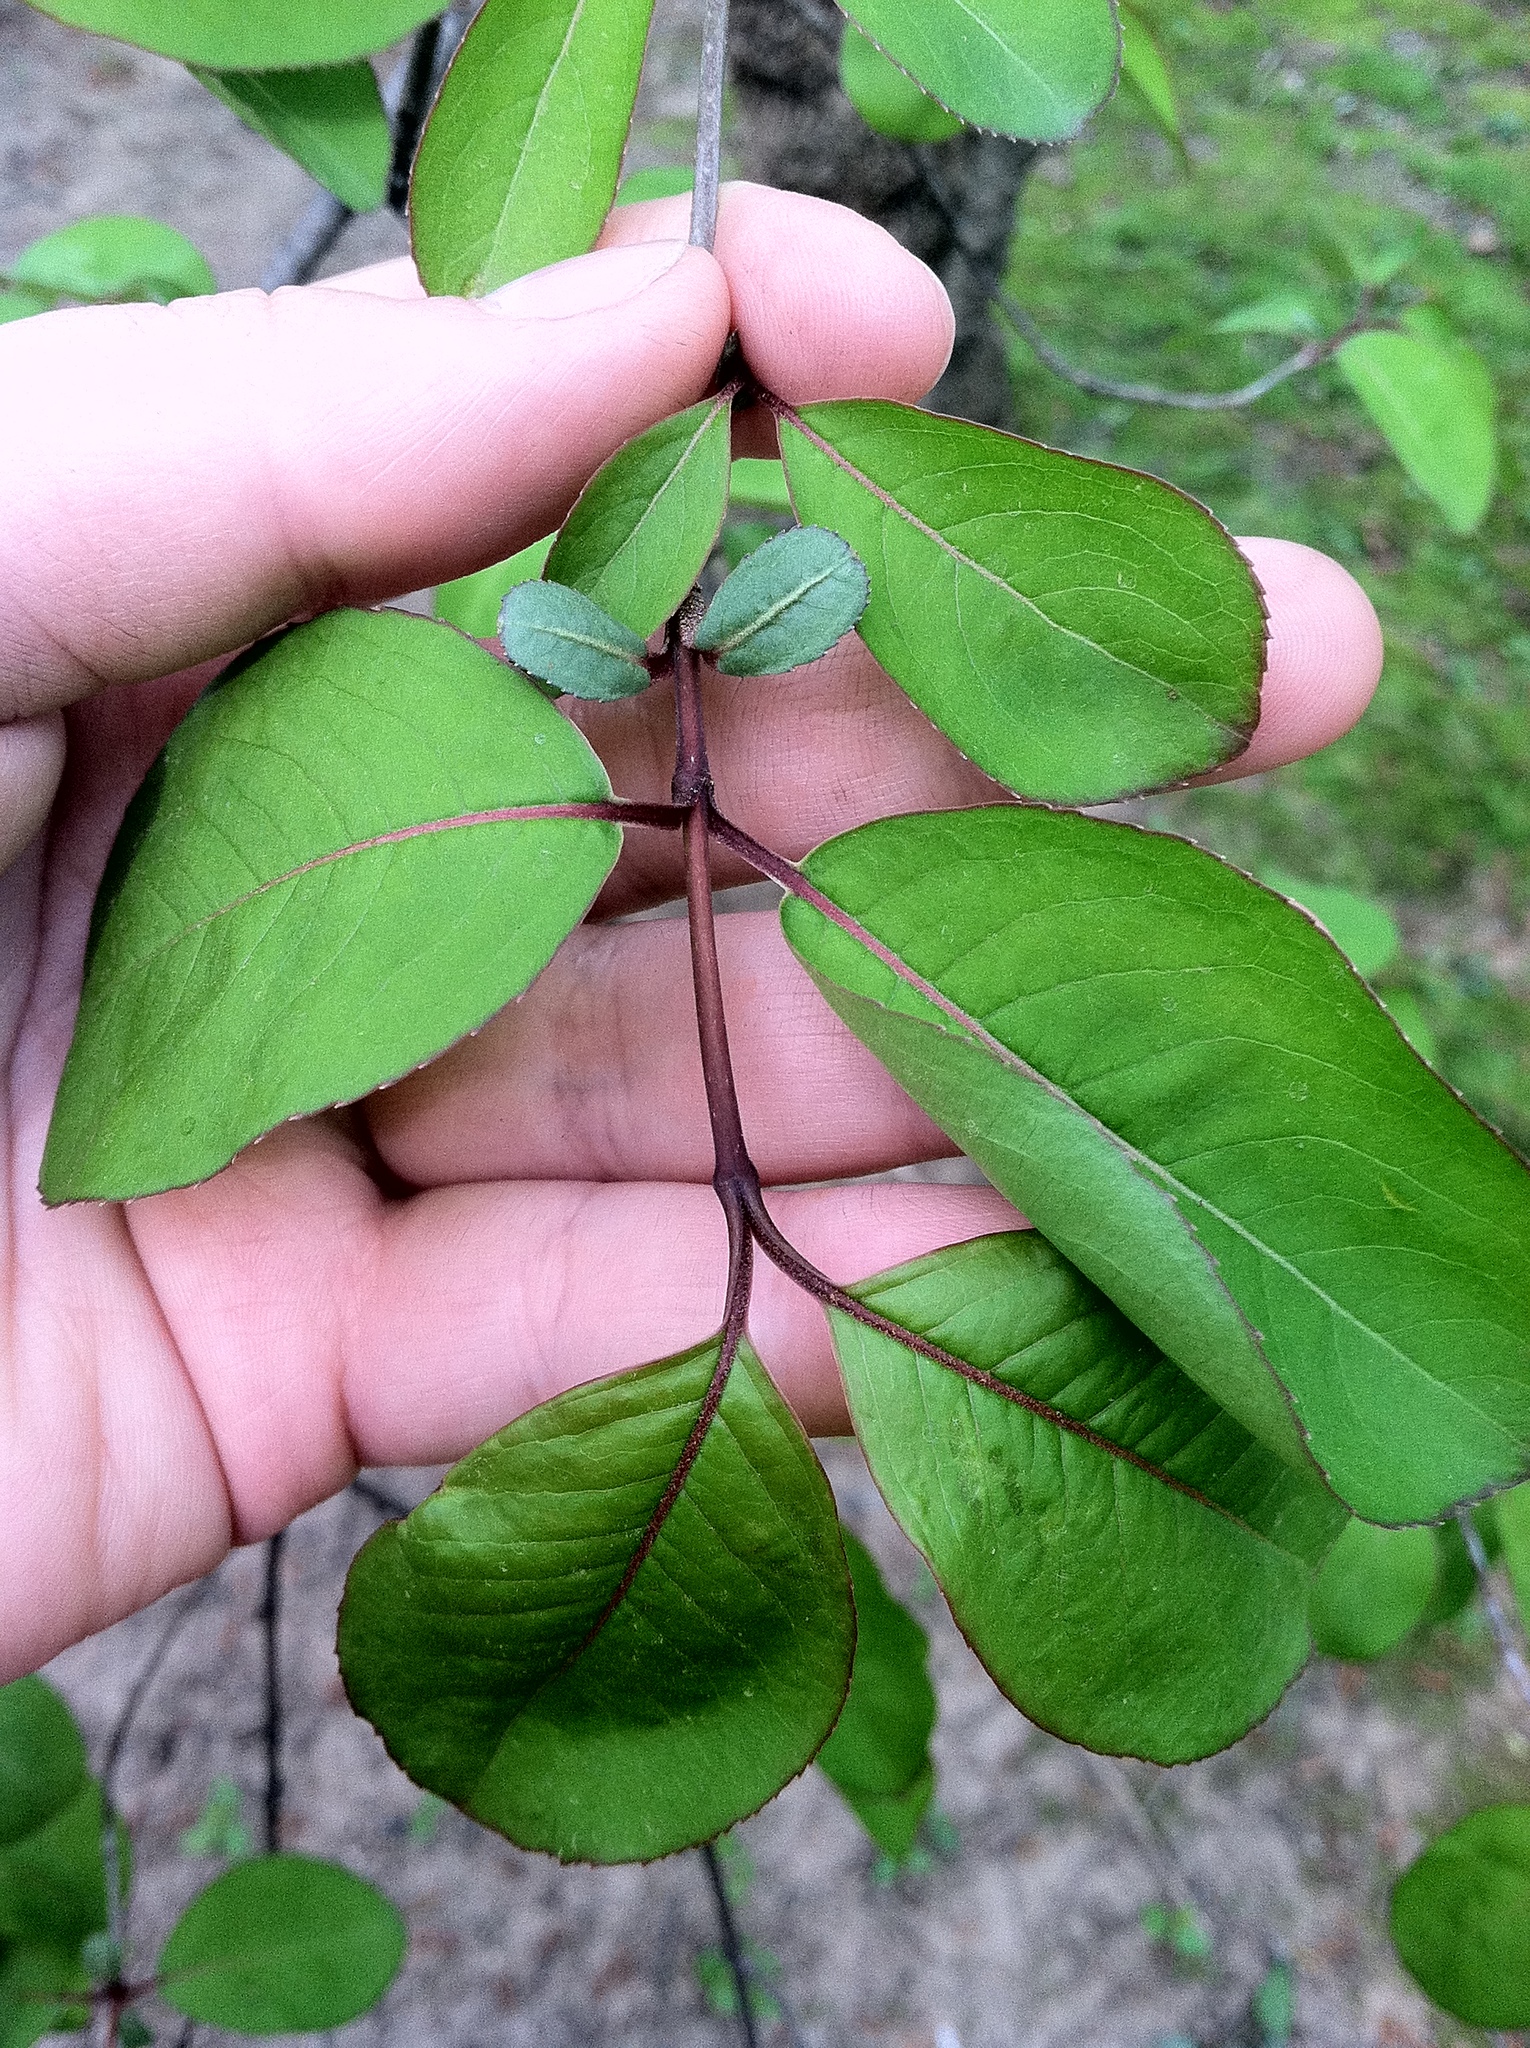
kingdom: Plantae
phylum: Tracheophyta
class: Magnoliopsida
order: Dipsacales
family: Viburnaceae
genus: Viburnum
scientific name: Viburnum prunifolium
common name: Black haw
